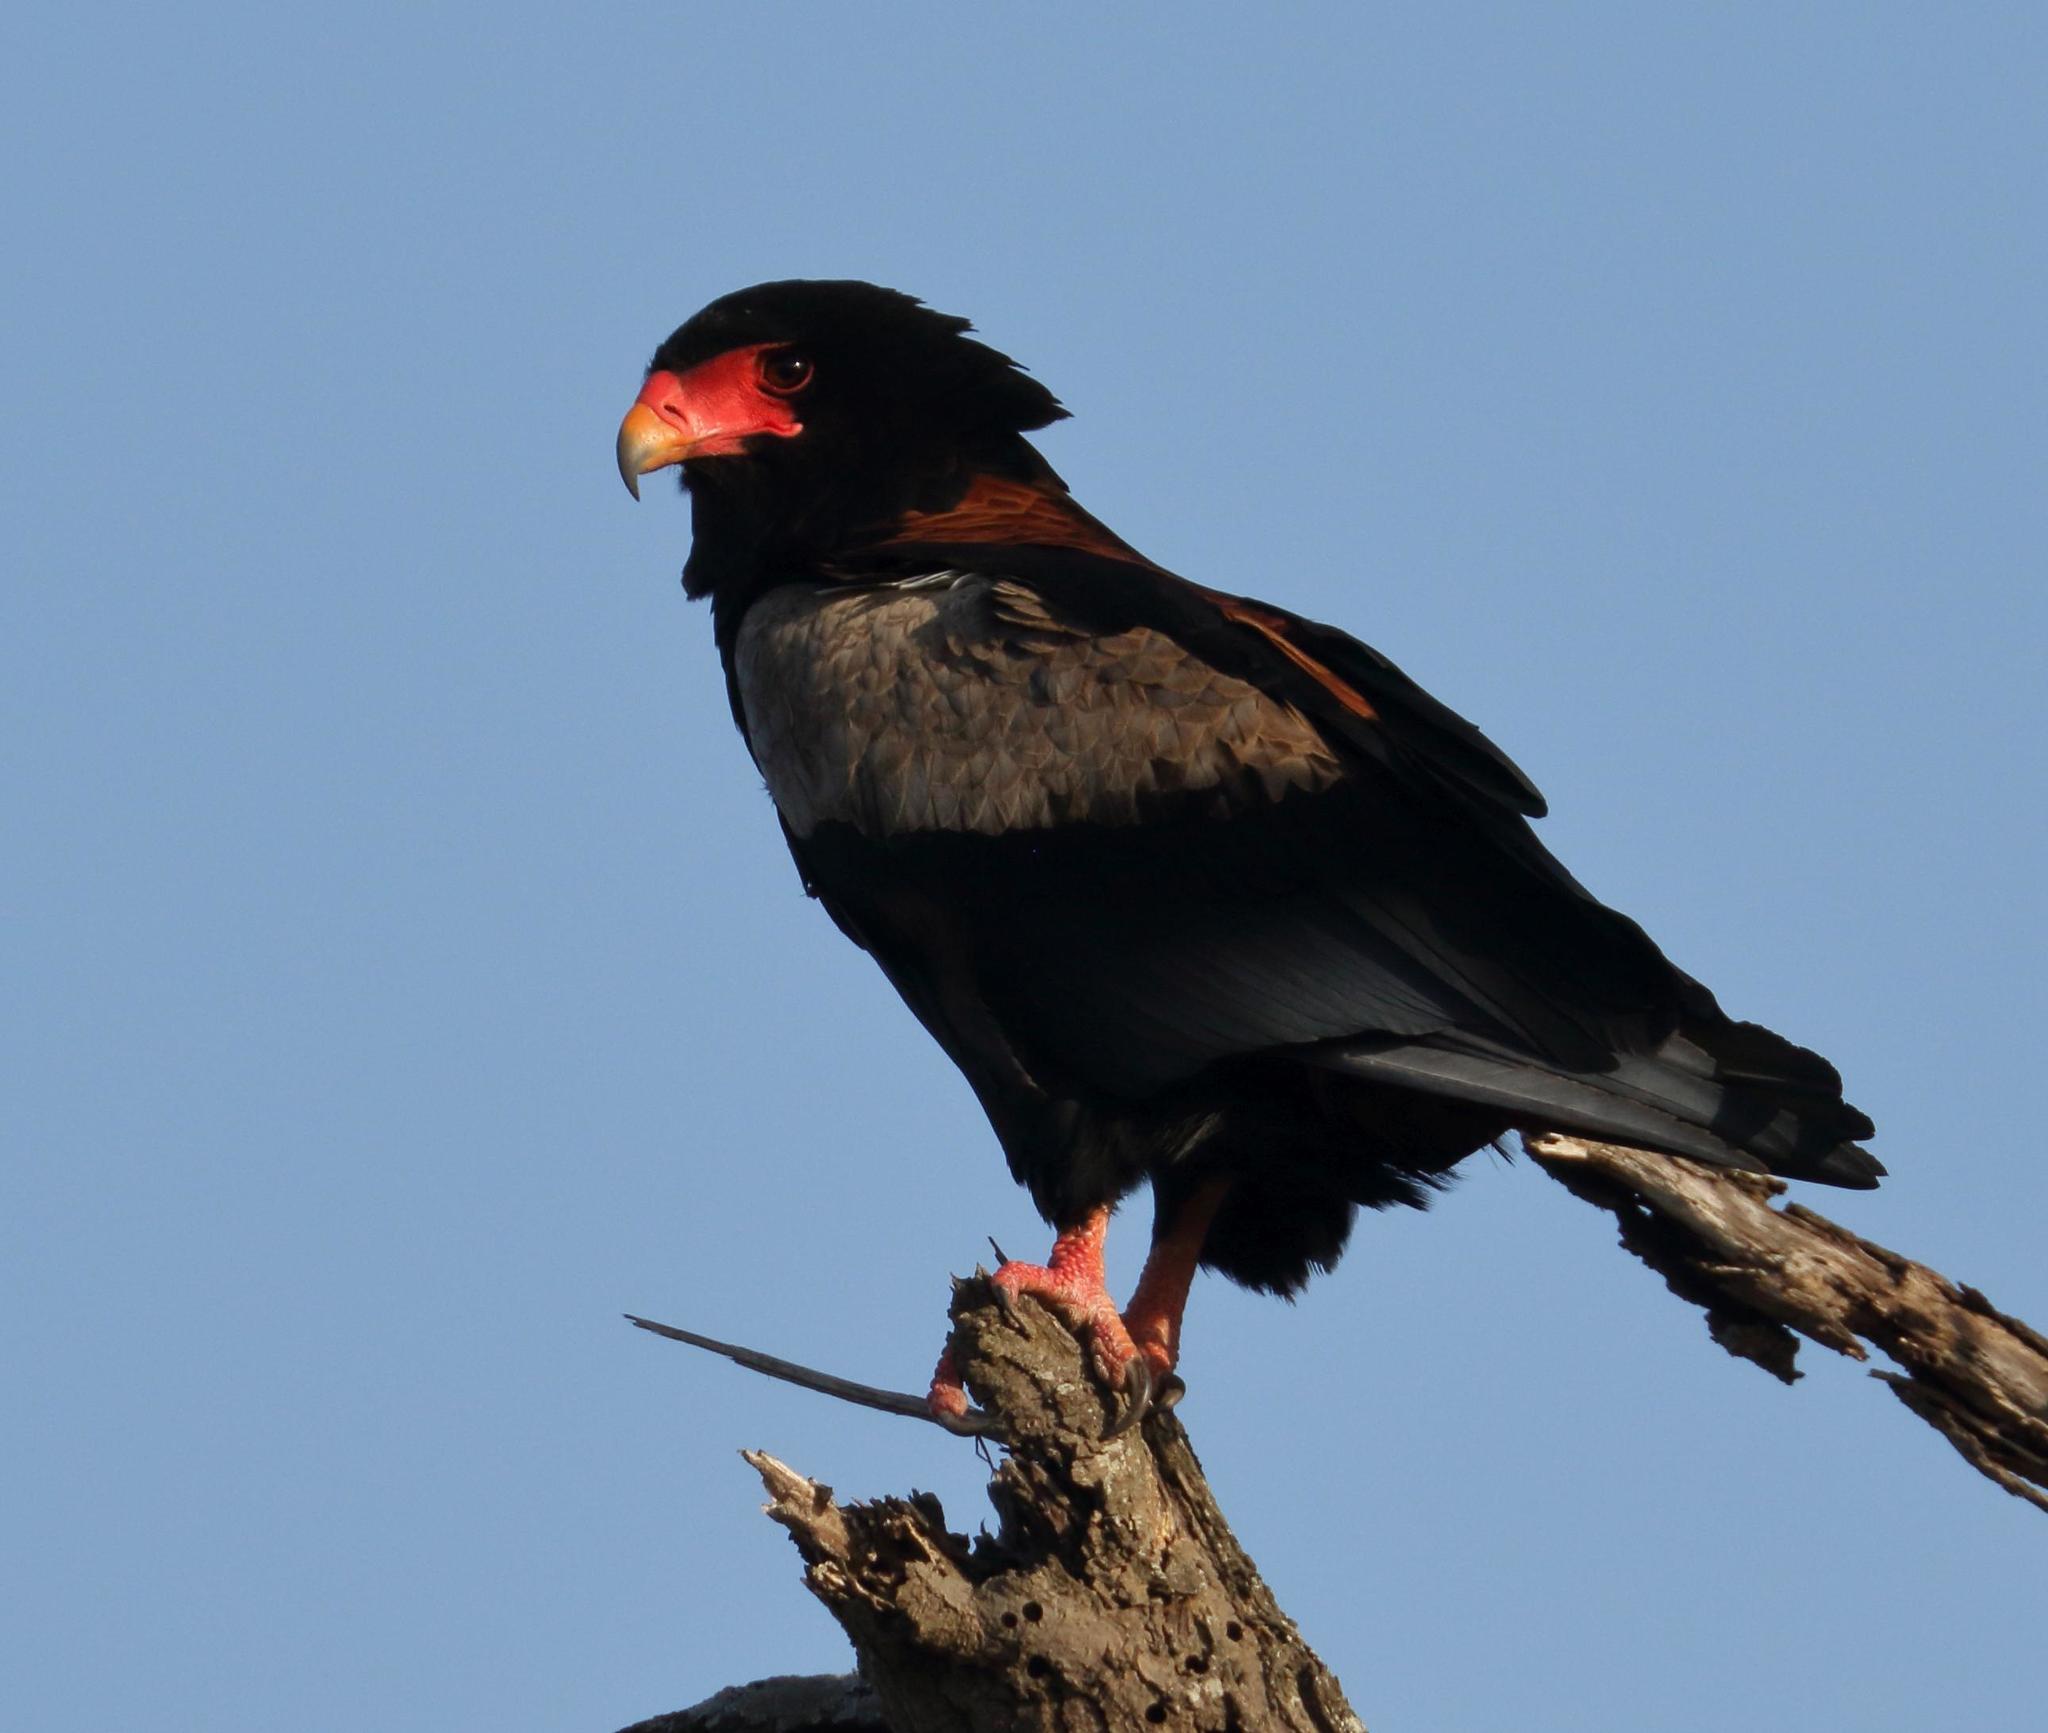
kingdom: Animalia
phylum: Chordata
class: Aves
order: Accipitriformes
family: Accipitridae
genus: Terathopius
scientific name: Terathopius ecaudatus
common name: Bateleur
